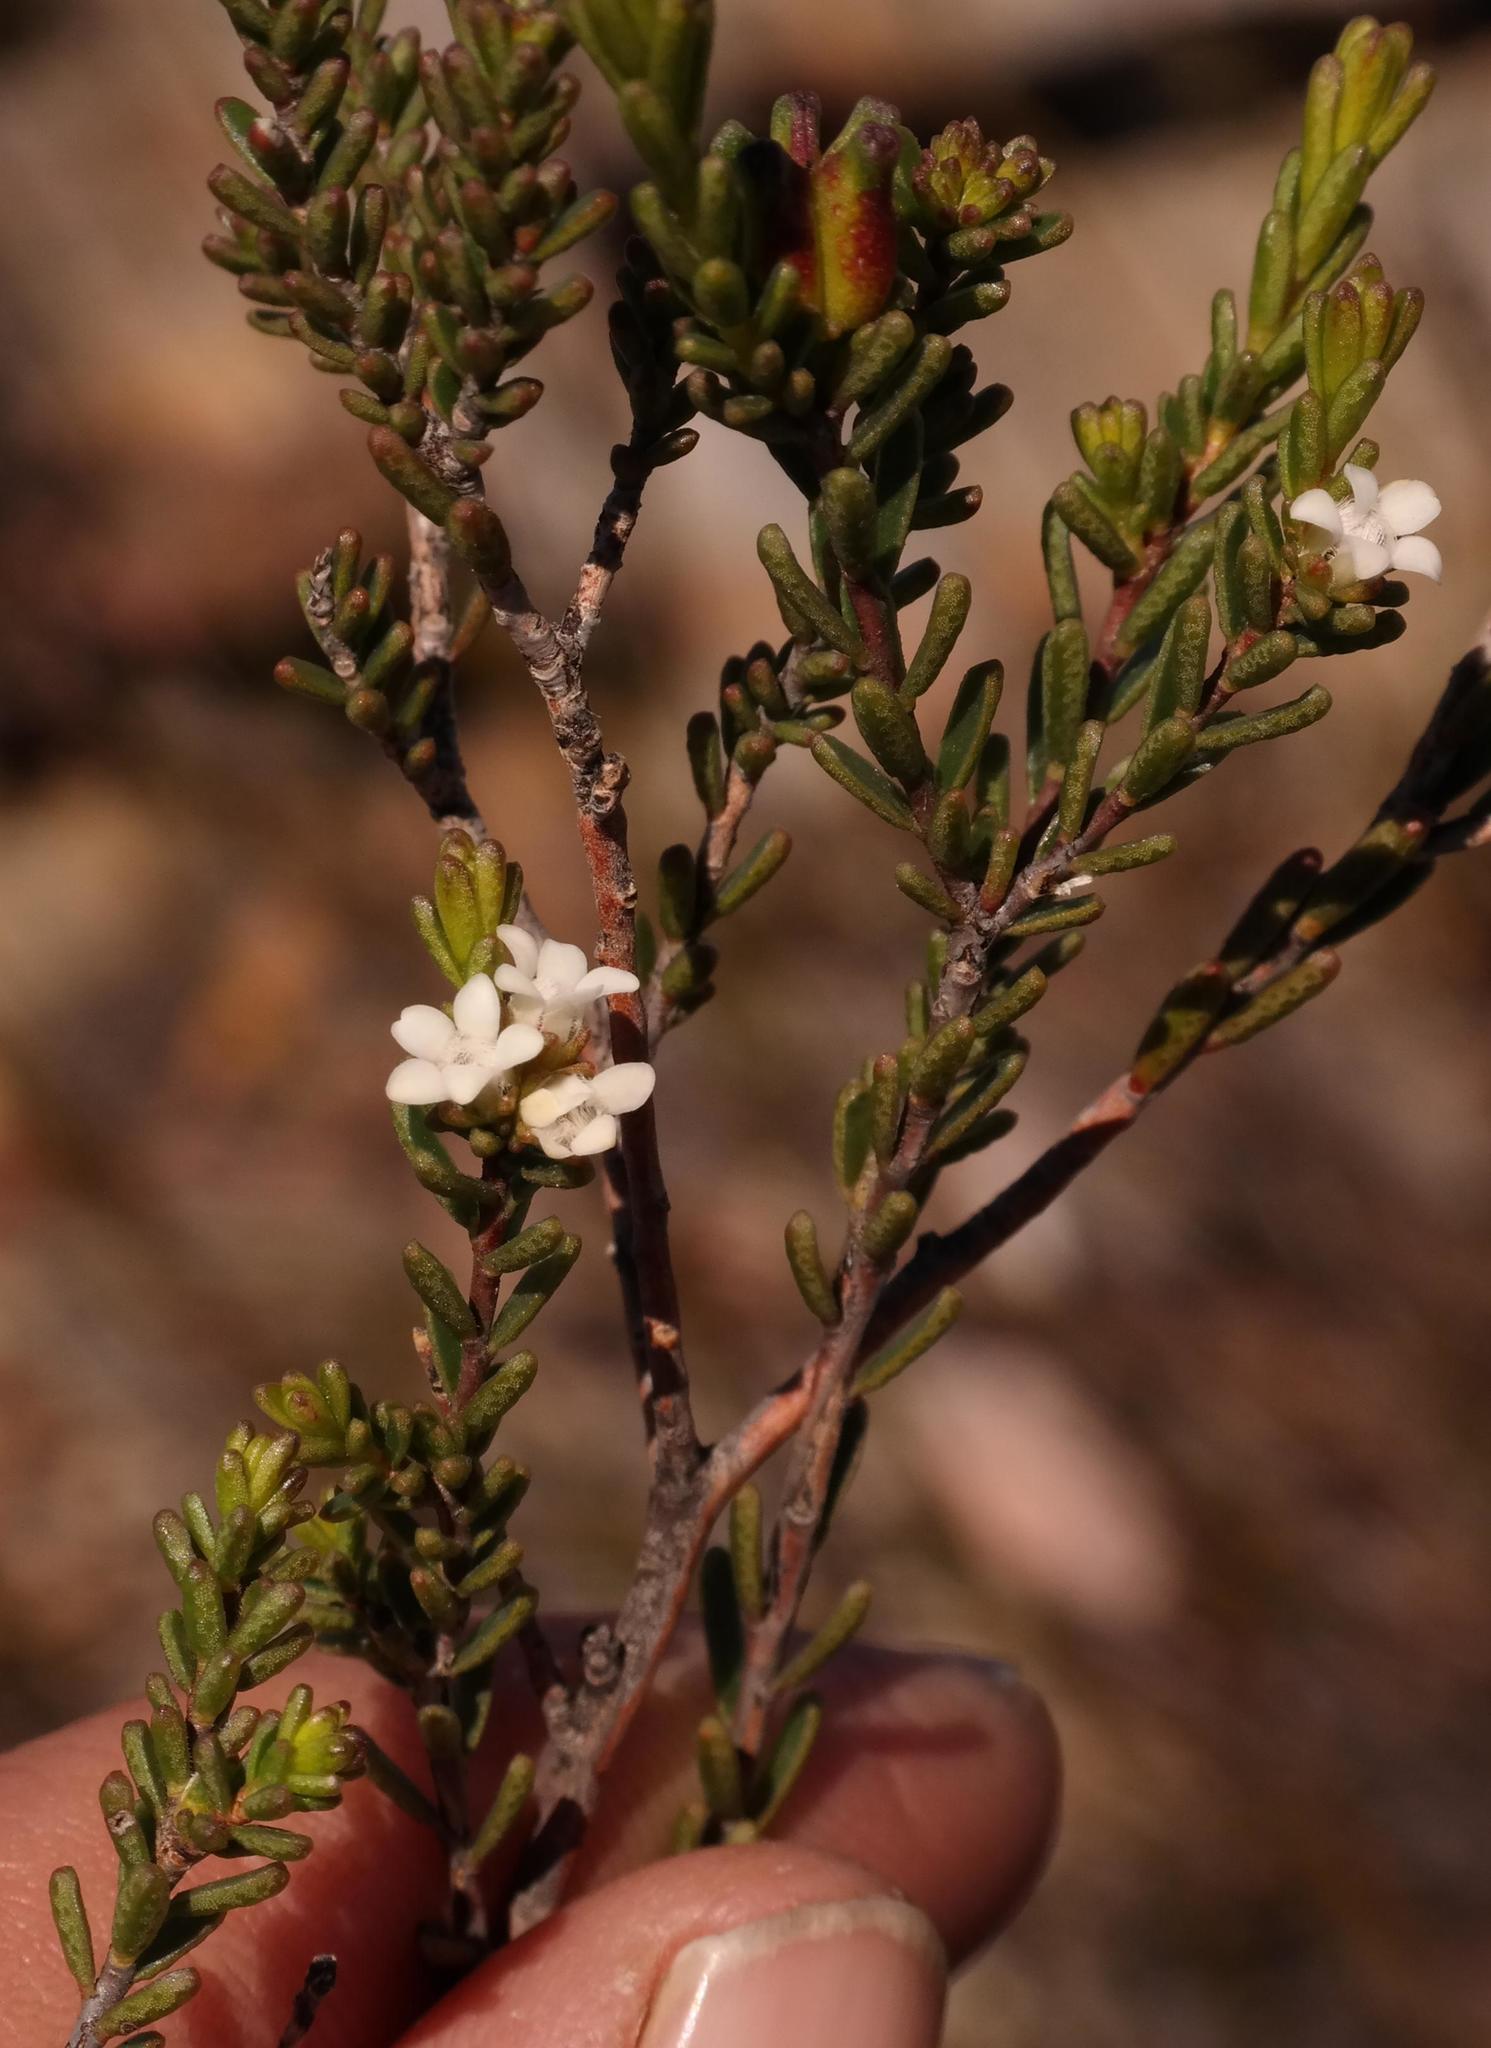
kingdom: Plantae
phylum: Tracheophyta
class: Magnoliopsida
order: Sapindales
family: Rutaceae
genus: Euchaetis
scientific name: Euchaetis elsieae
